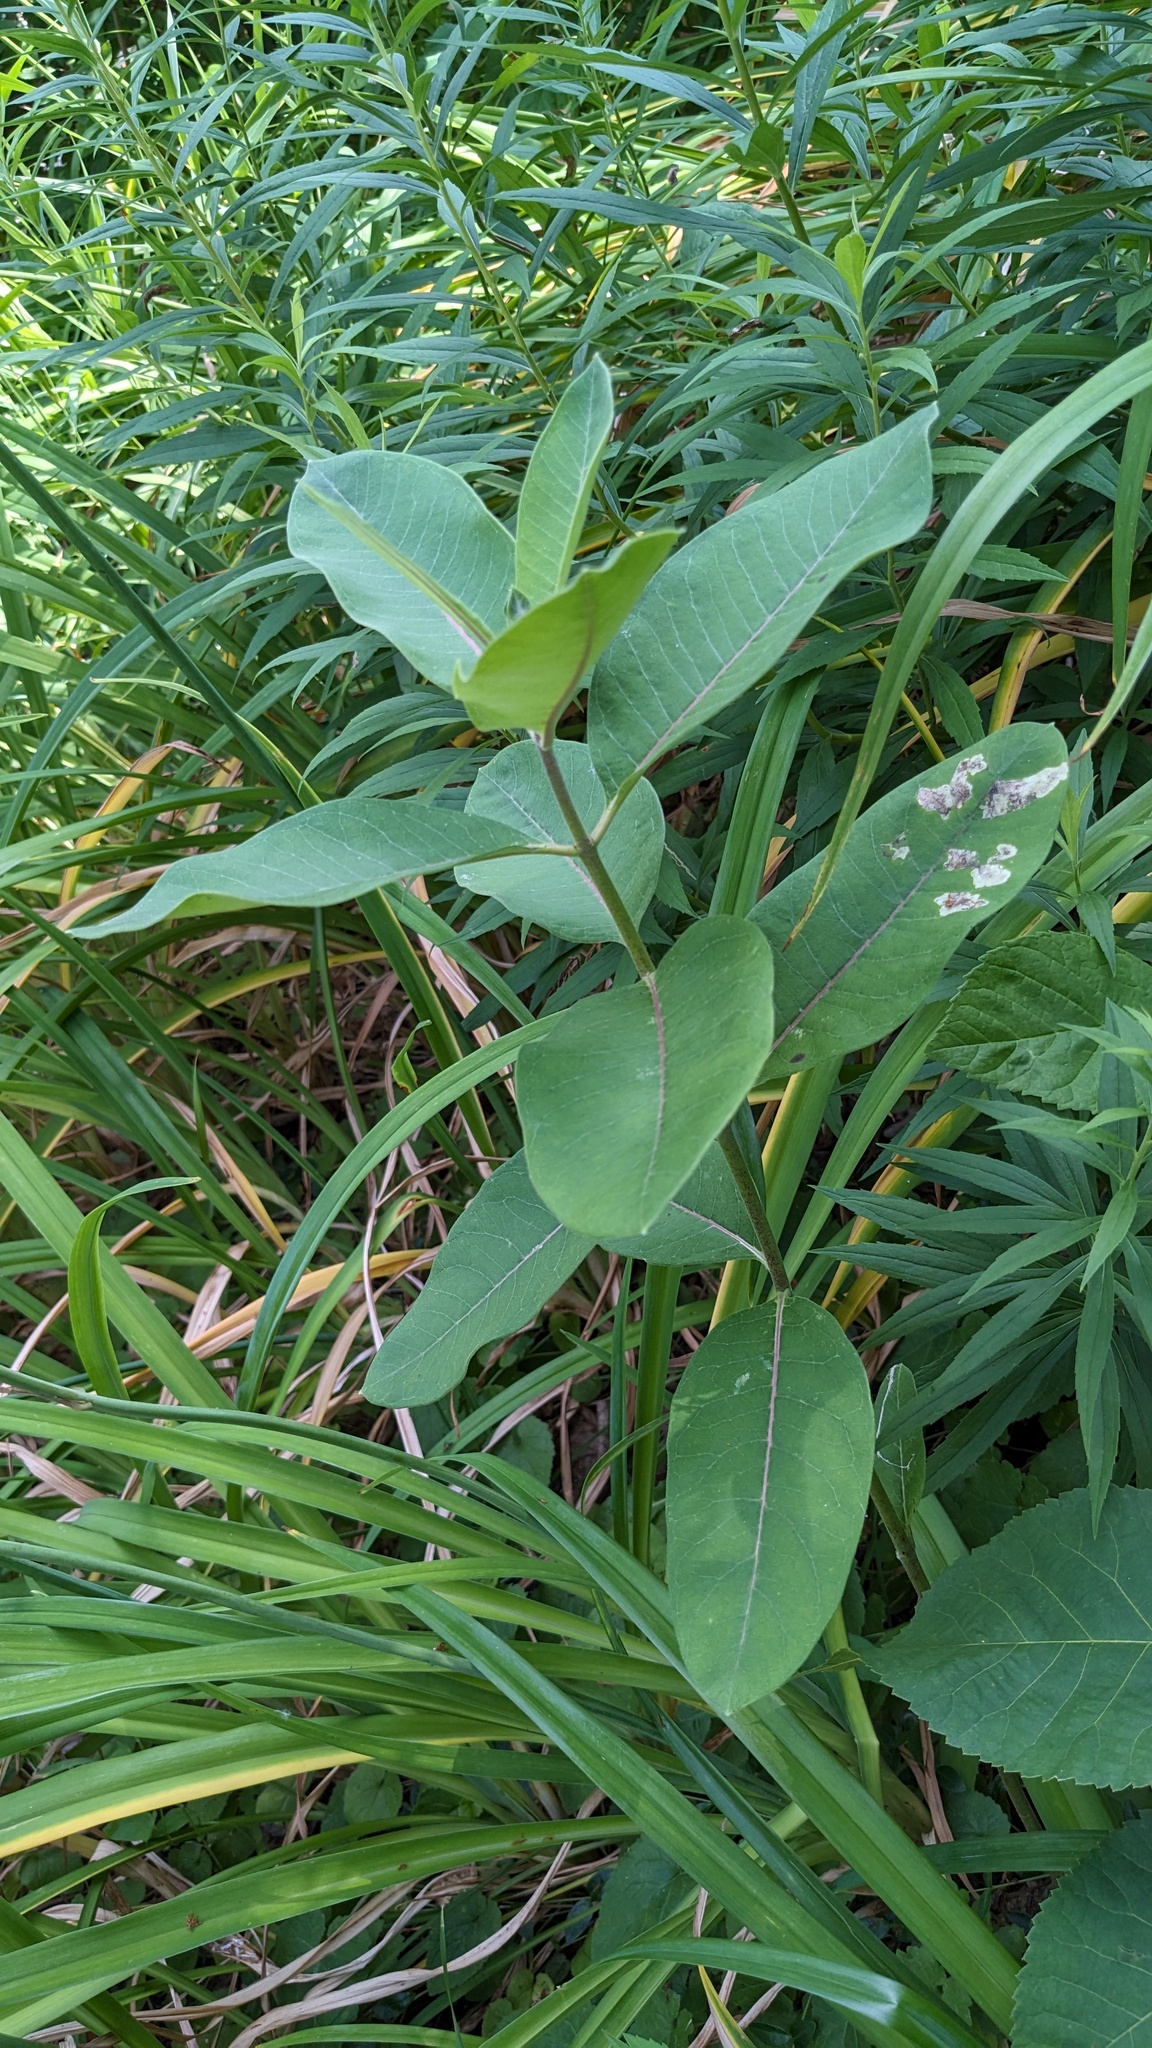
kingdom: Plantae
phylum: Tracheophyta
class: Magnoliopsida
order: Gentianales
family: Apocynaceae
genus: Asclepias
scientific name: Asclepias syriaca
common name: Common milkweed
